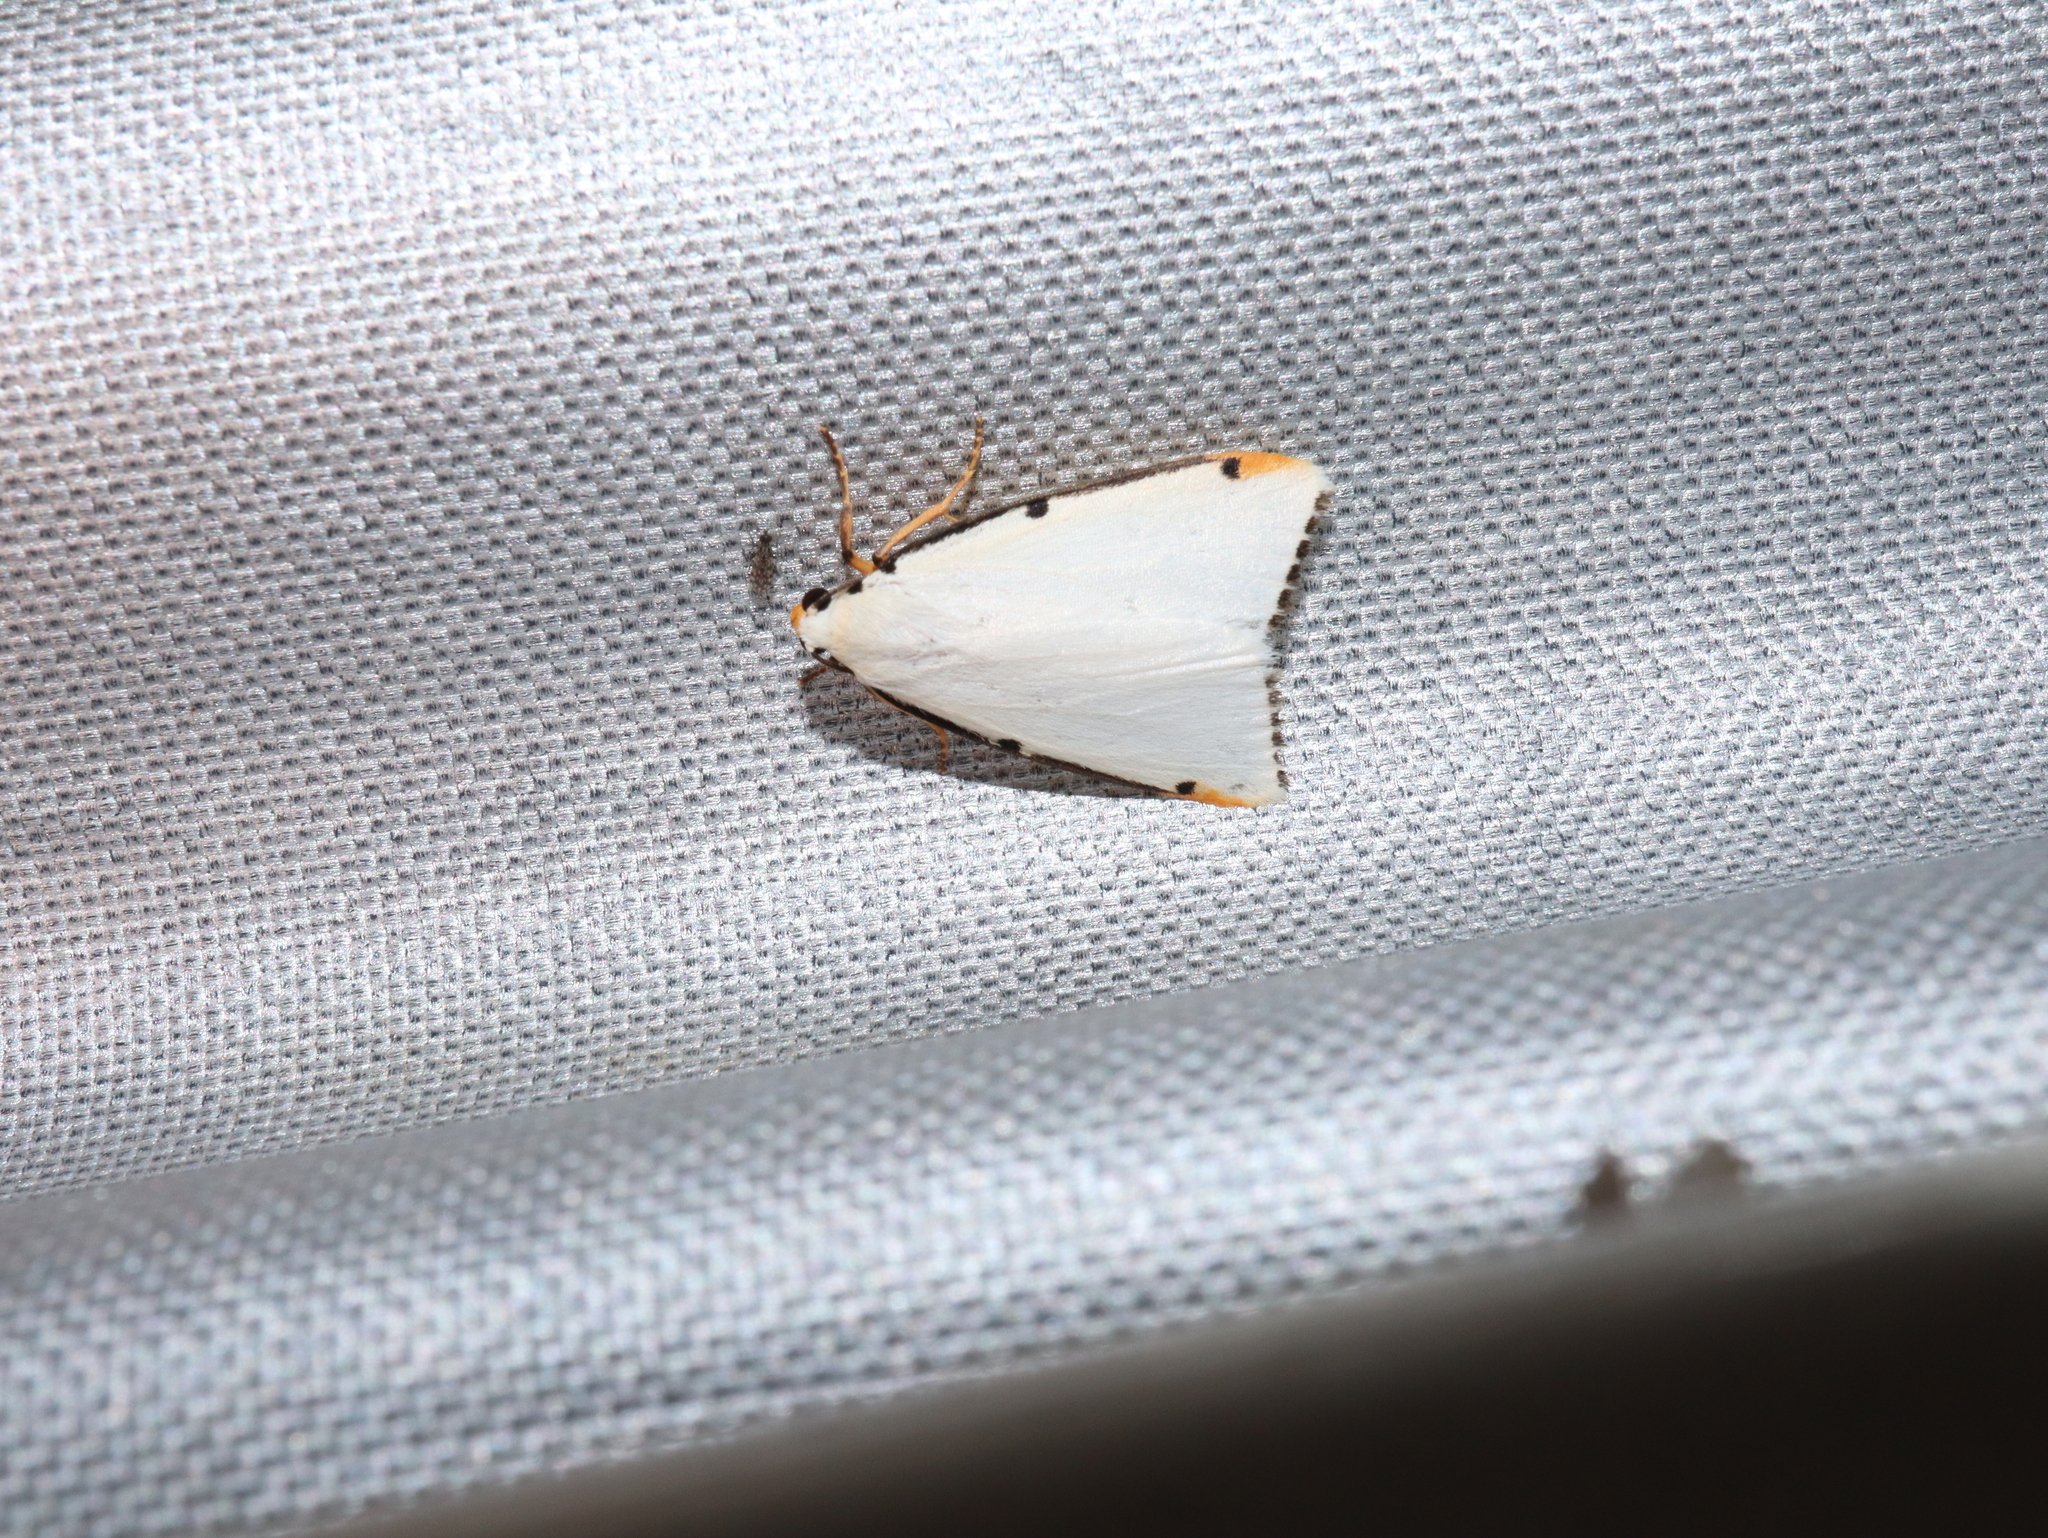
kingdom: Animalia
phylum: Arthropoda
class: Insecta
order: Lepidoptera
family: Erebidae
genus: Termessa
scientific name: Termessa nivosa
